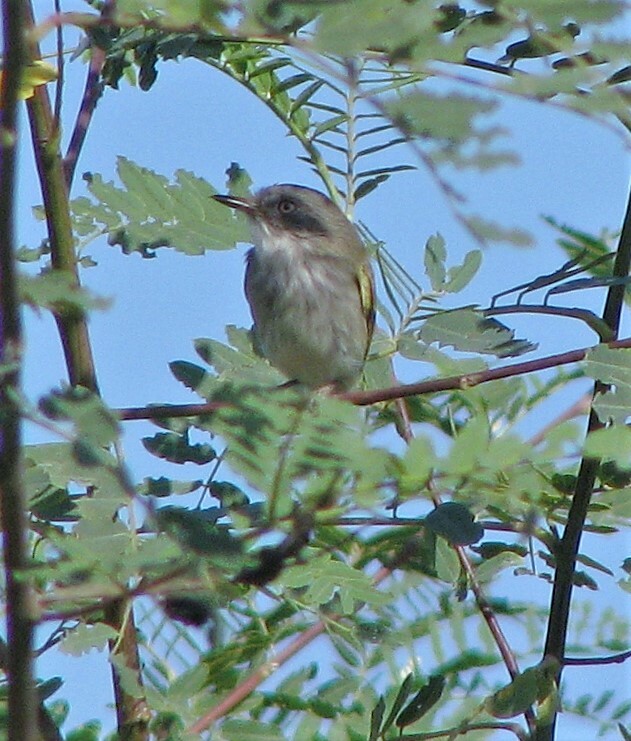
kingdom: Animalia
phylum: Chordata
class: Aves
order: Passeriformes
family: Tyrannidae
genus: Hemitriccus
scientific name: Hemitriccus margaritaceiventer
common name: Pearly-vented tody-tyrant
